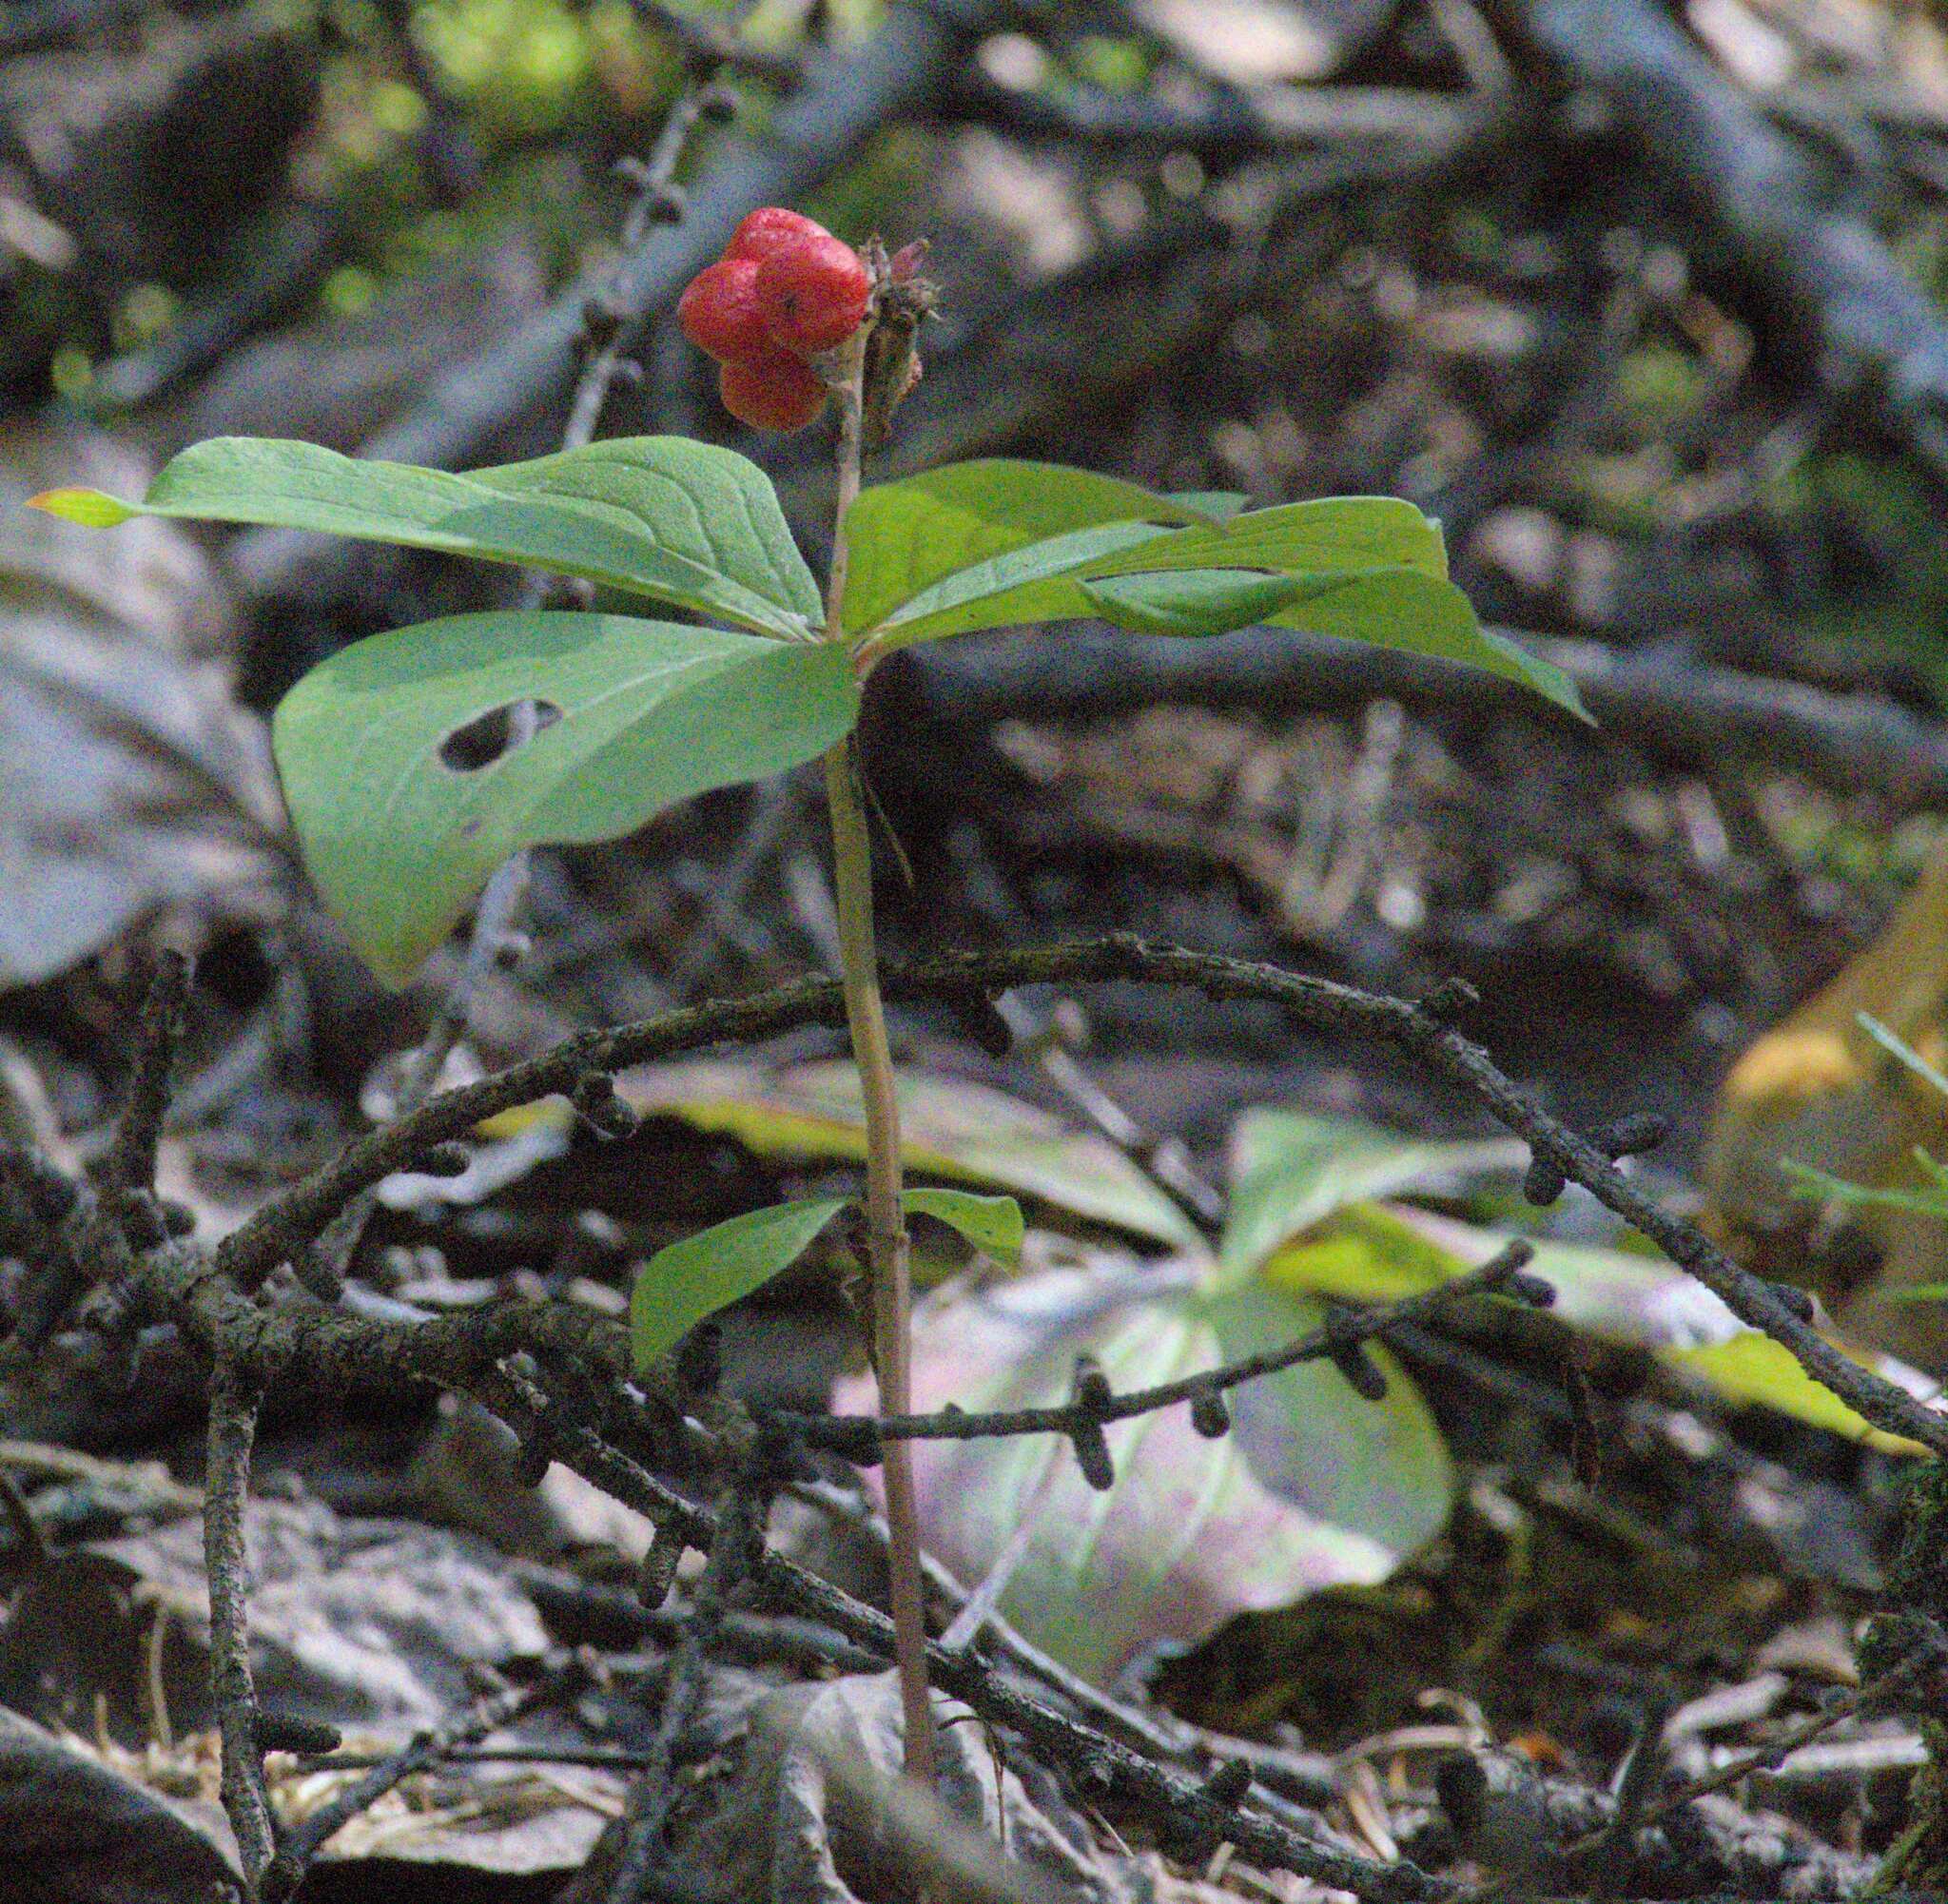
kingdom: Plantae
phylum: Tracheophyta
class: Magnoliopsida
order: Cornales
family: Cornaceae
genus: Cornus
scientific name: Cornus canadensis
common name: Creeping dogwood
